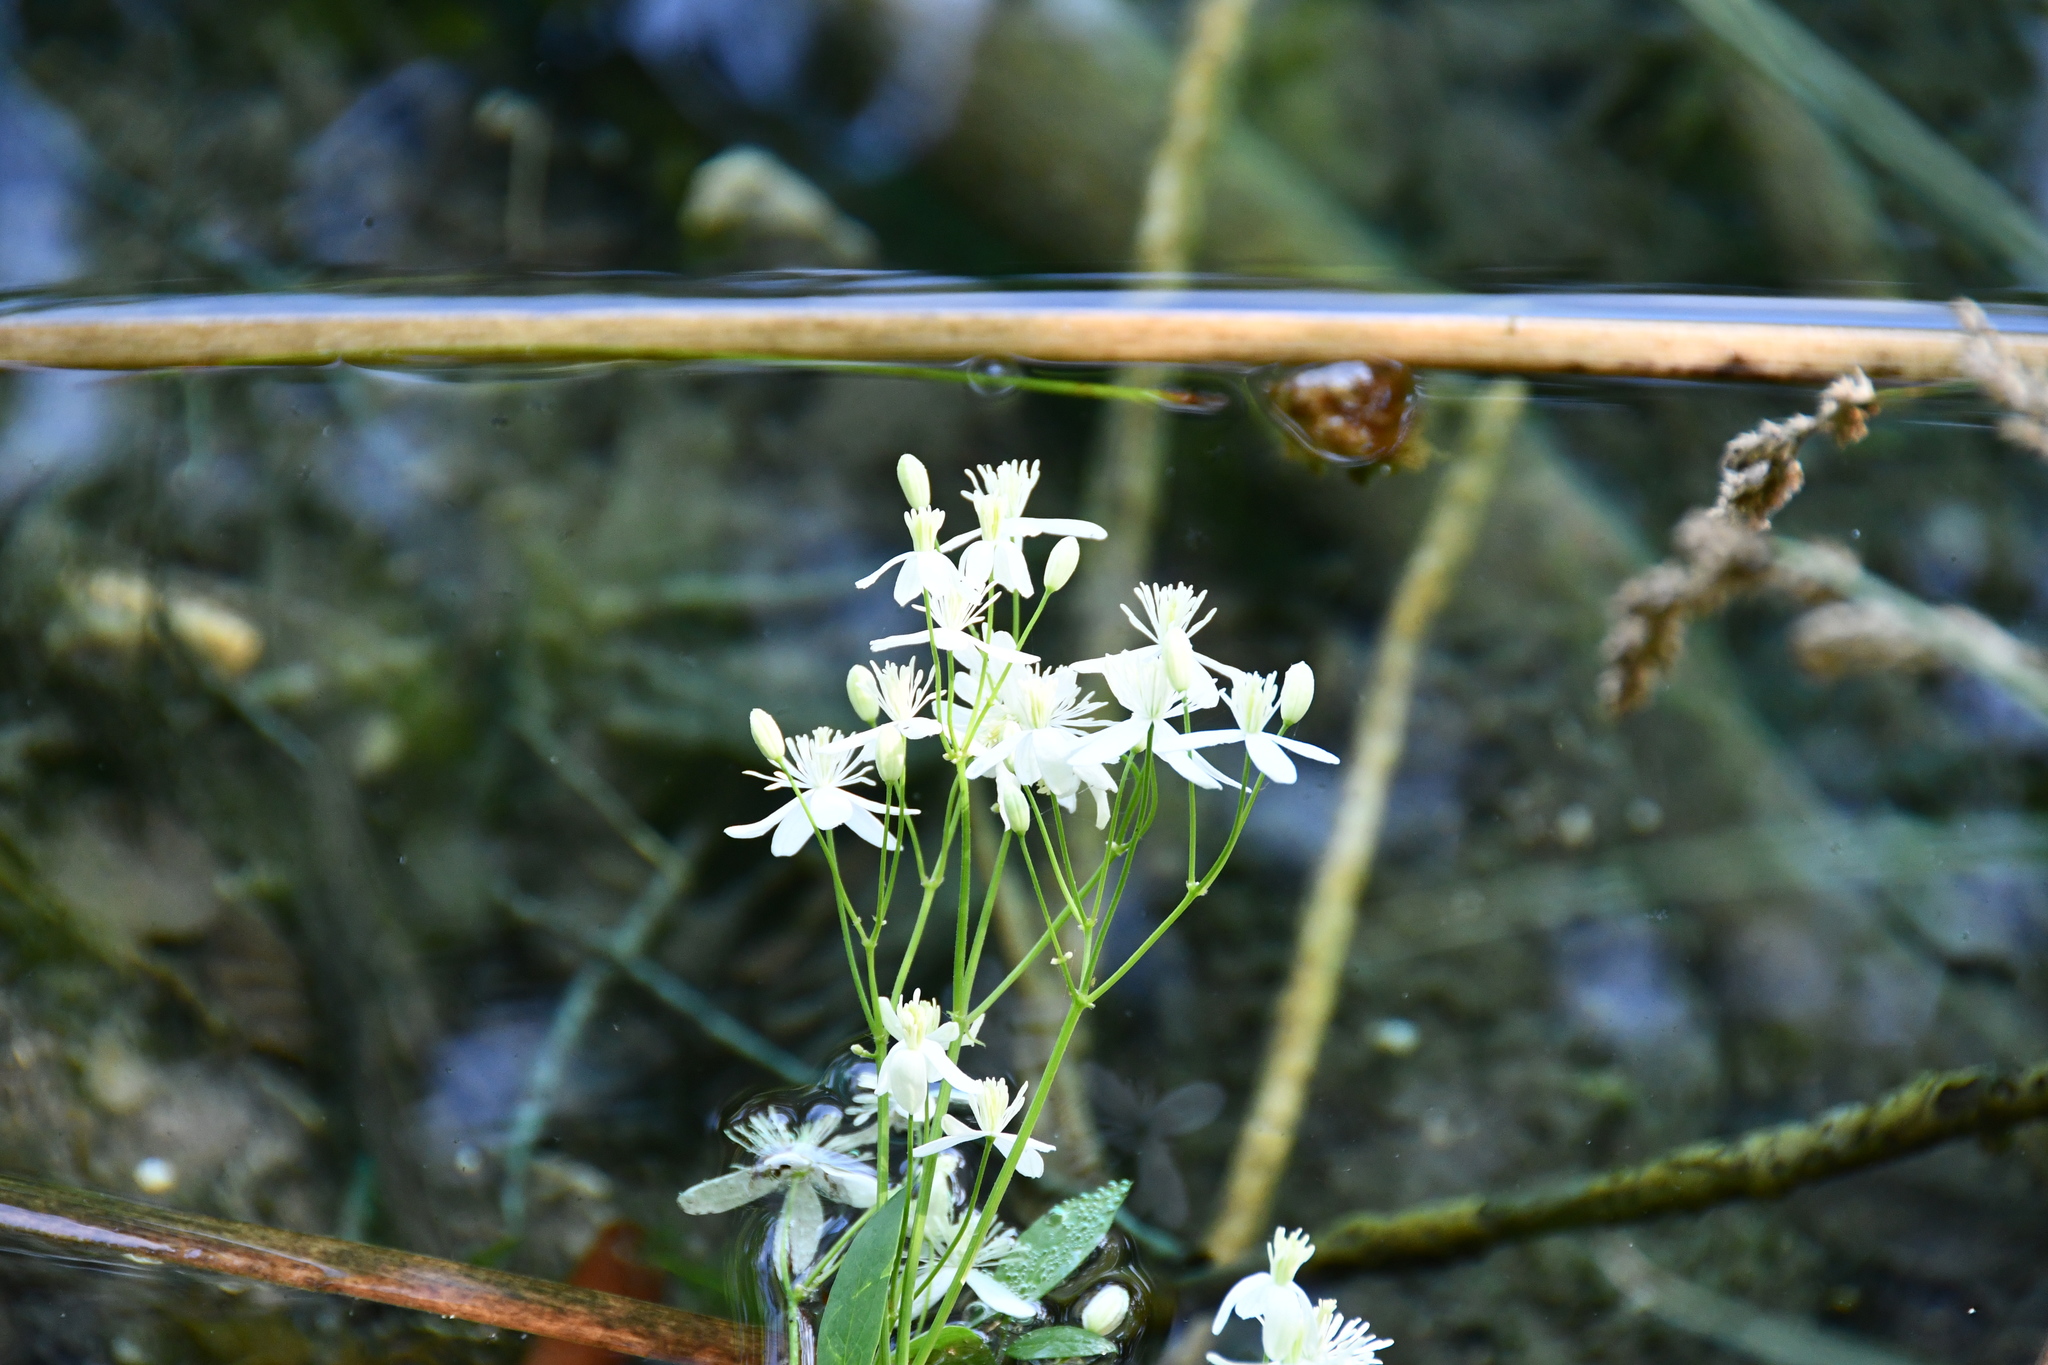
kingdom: Plantae
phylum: Tracheophyta
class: Magnoliopsida
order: Ranunculales
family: Ranunculaceae
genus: Clematis
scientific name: Clematis recta
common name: Ground clematis
